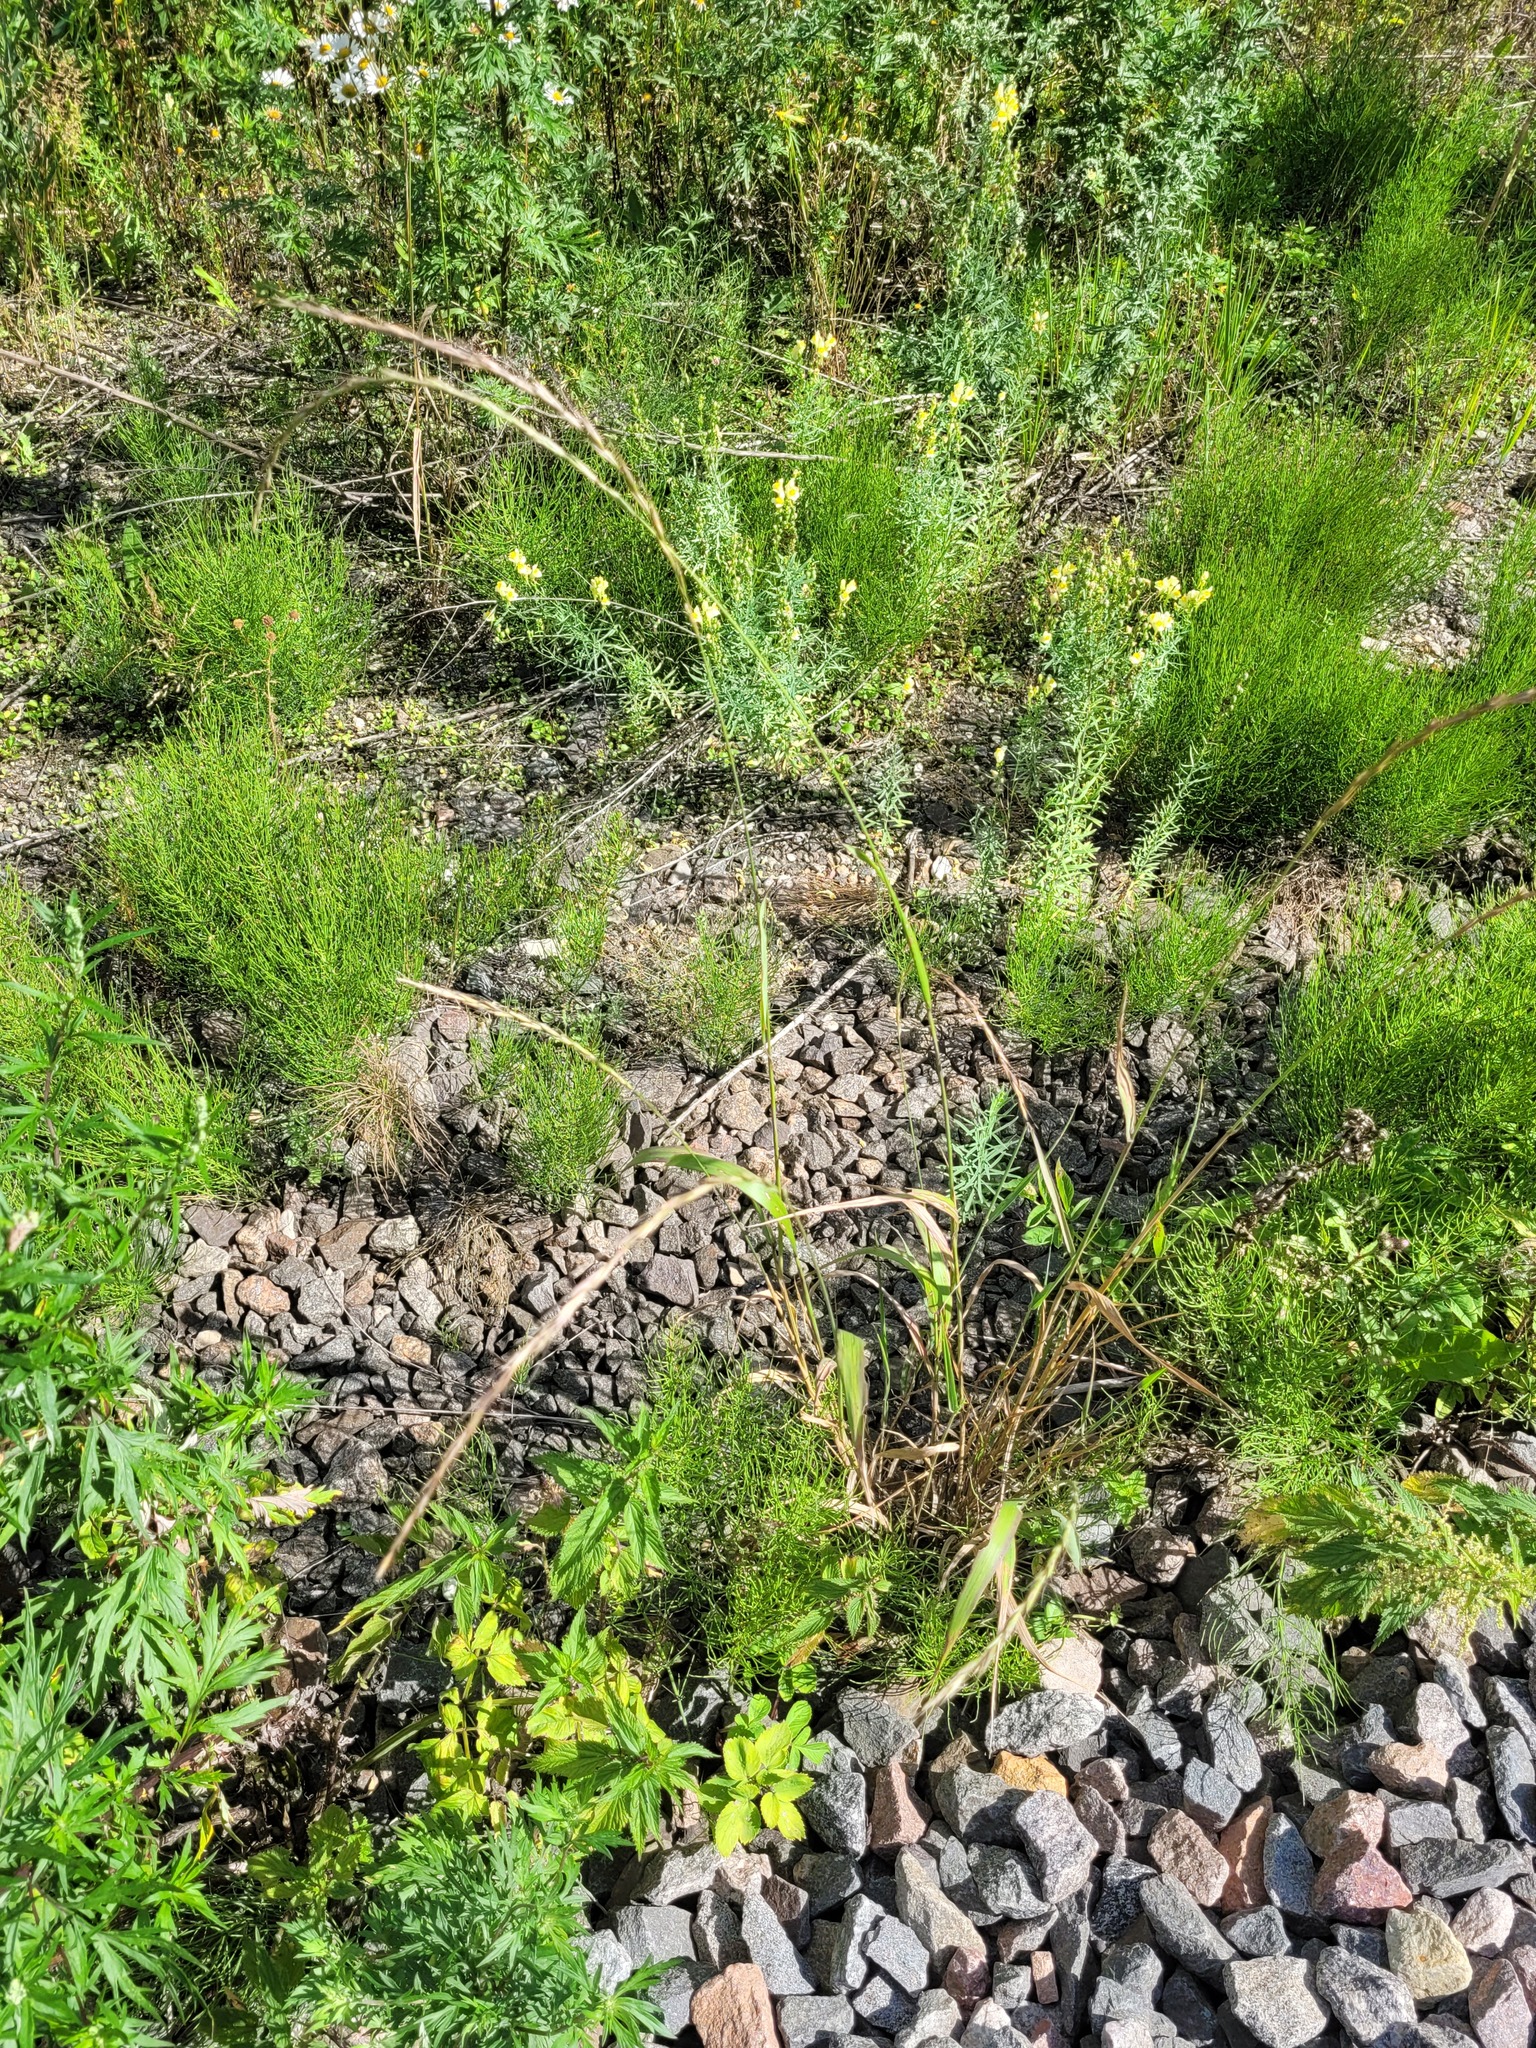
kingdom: Plantae
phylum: Tracheophyta
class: Liliopsida
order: Poales
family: Poaceae
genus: Elymus
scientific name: Elymus caninus
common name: Bearded couch
